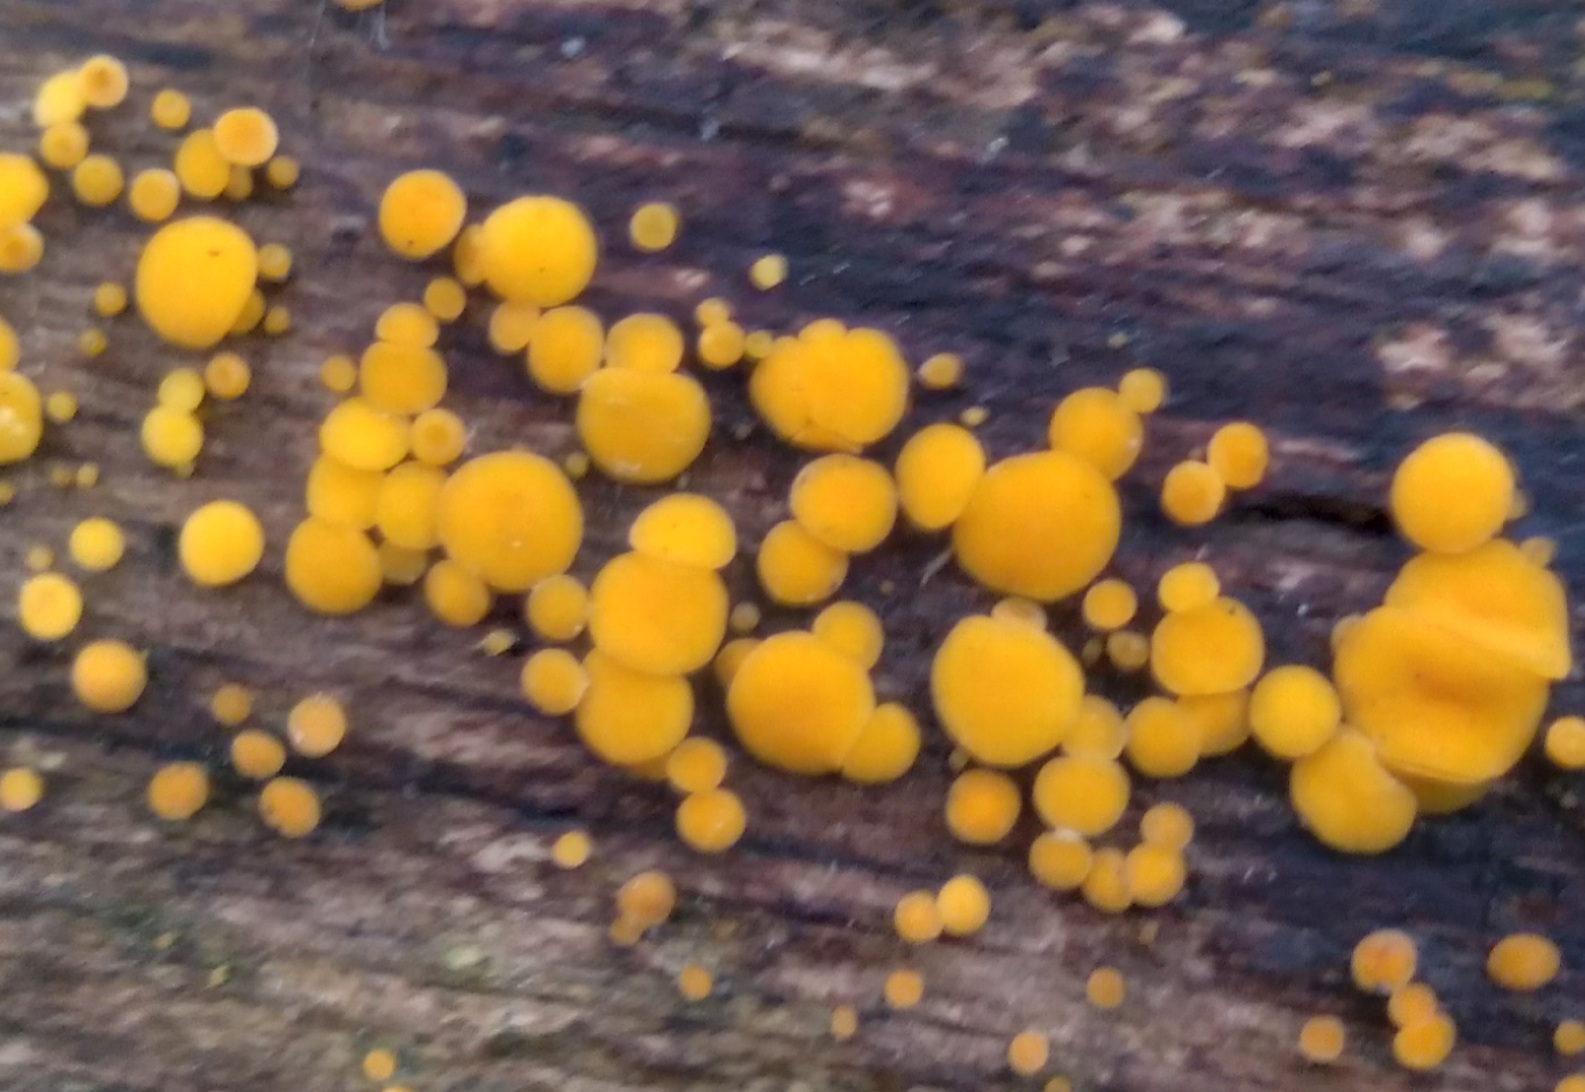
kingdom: Fungi
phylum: Ascomycota
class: Leotiomycetes
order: Helotiales
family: Pezizellaceae
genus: Calycina
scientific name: Calycina citrina
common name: Yellow fairy cups
